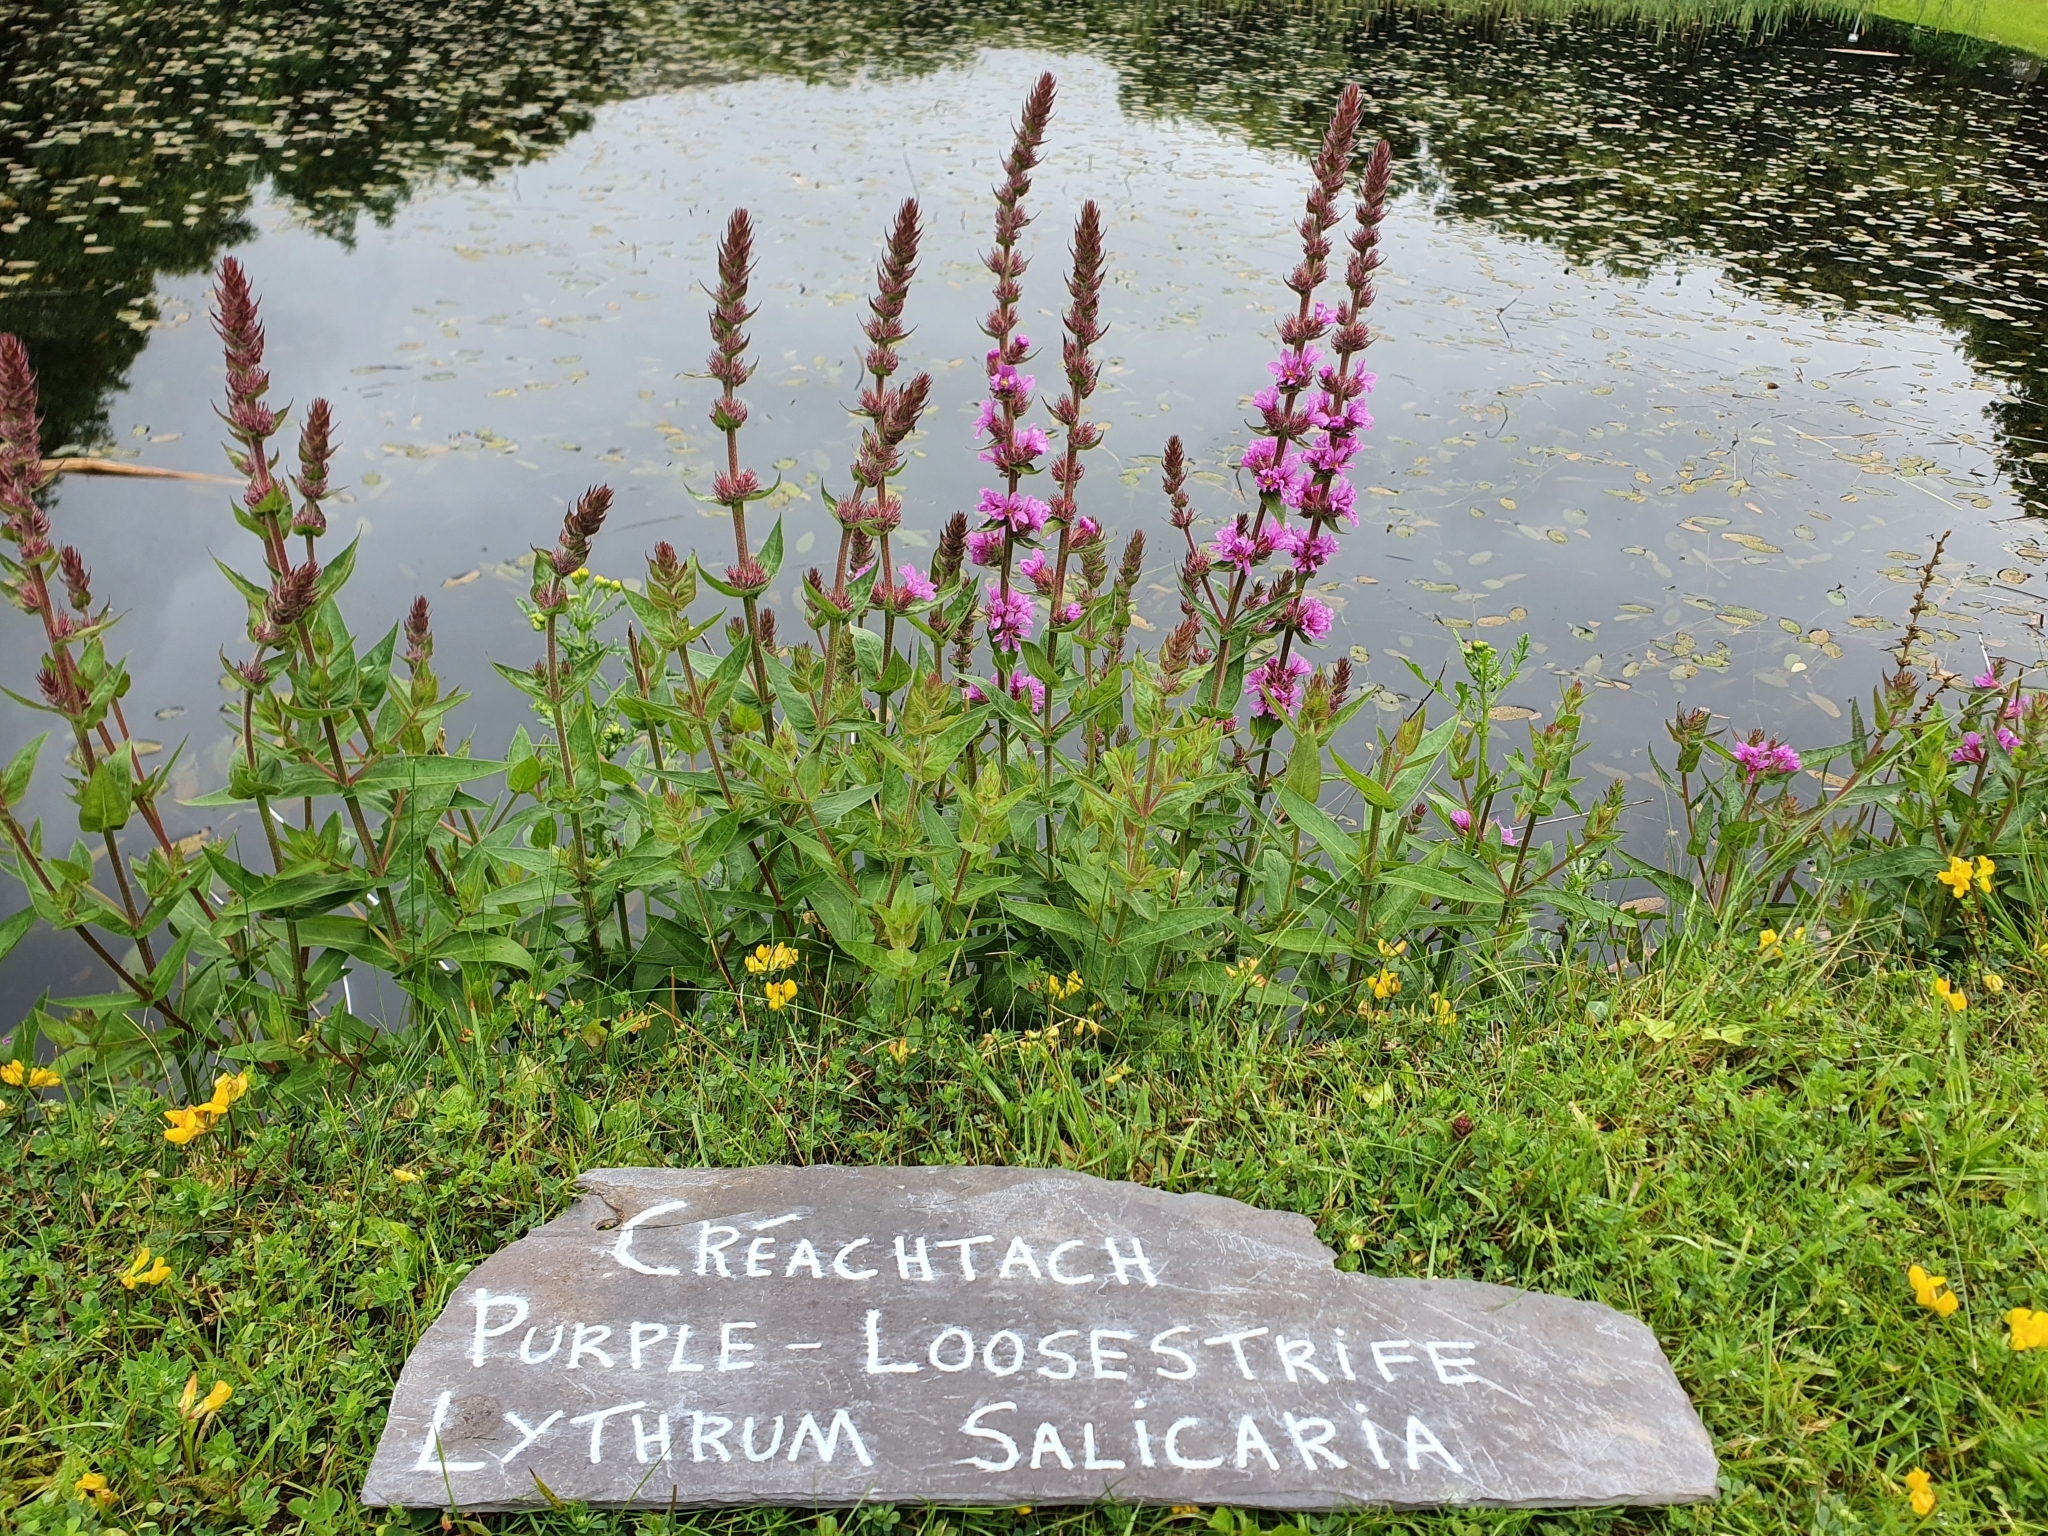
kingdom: Plantae
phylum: Tracheophyta
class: Magnoliopsida
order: Myrtales
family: Lythraceae
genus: Lythrum
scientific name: Lythrum salicaria
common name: Purple loosestrife
